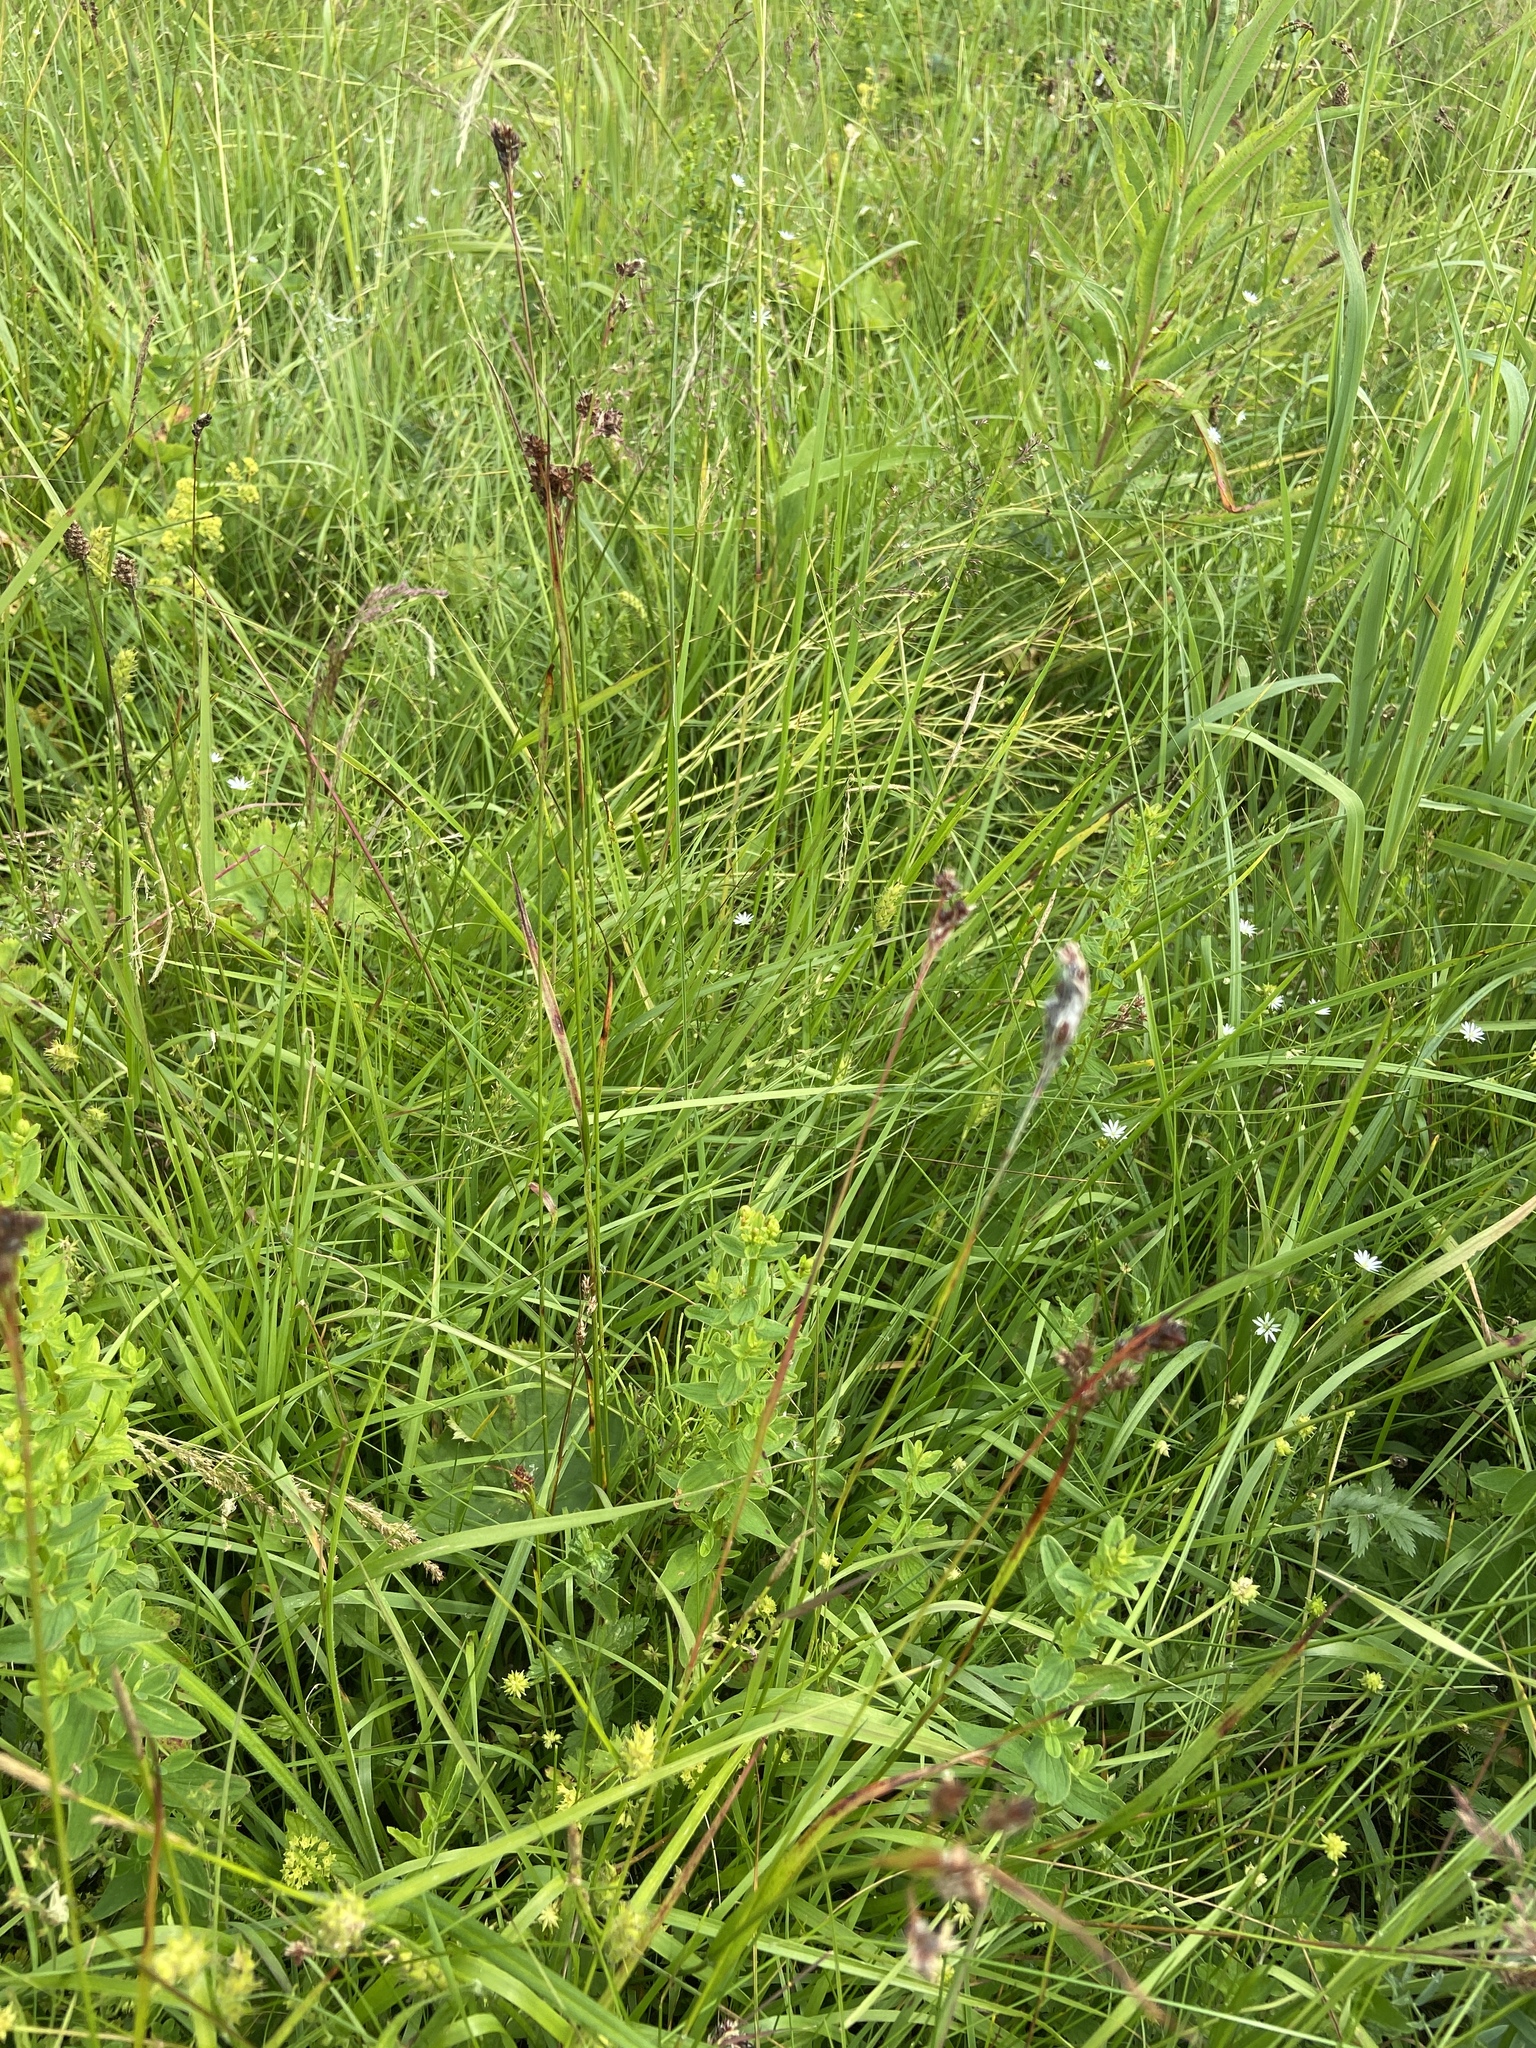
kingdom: Plantae
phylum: Tracheophyta
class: Liliopsida
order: Poales
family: Cyperaceae
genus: Carex
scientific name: Carex hirta
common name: Hairy sedge
